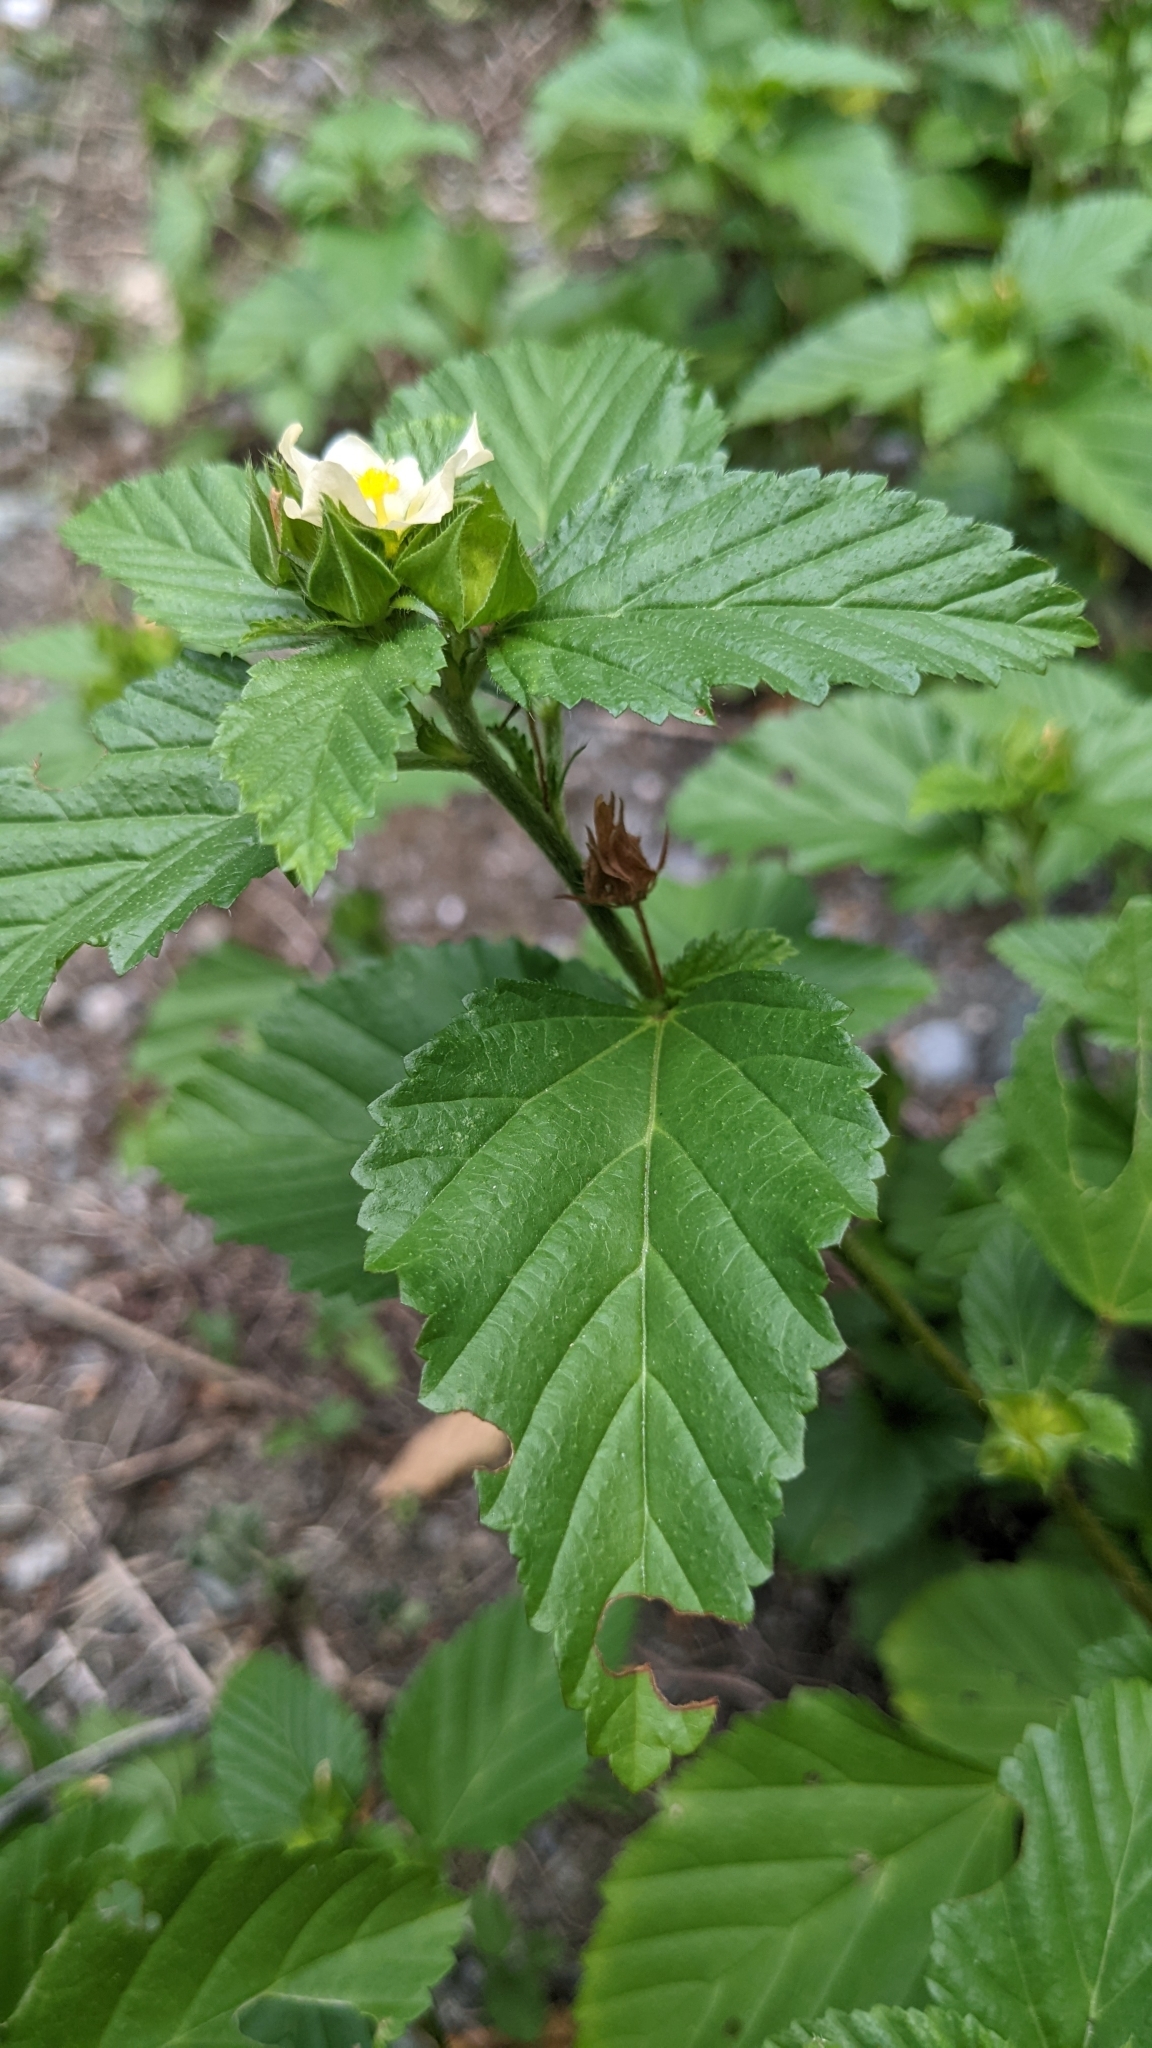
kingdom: Plantae
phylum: Tracheophyta
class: Magnoliopsida
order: Malvales
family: Malvaceae
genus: Malvastrum
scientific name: Malvastrum coromandelianum
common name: Threelobe false mallow
